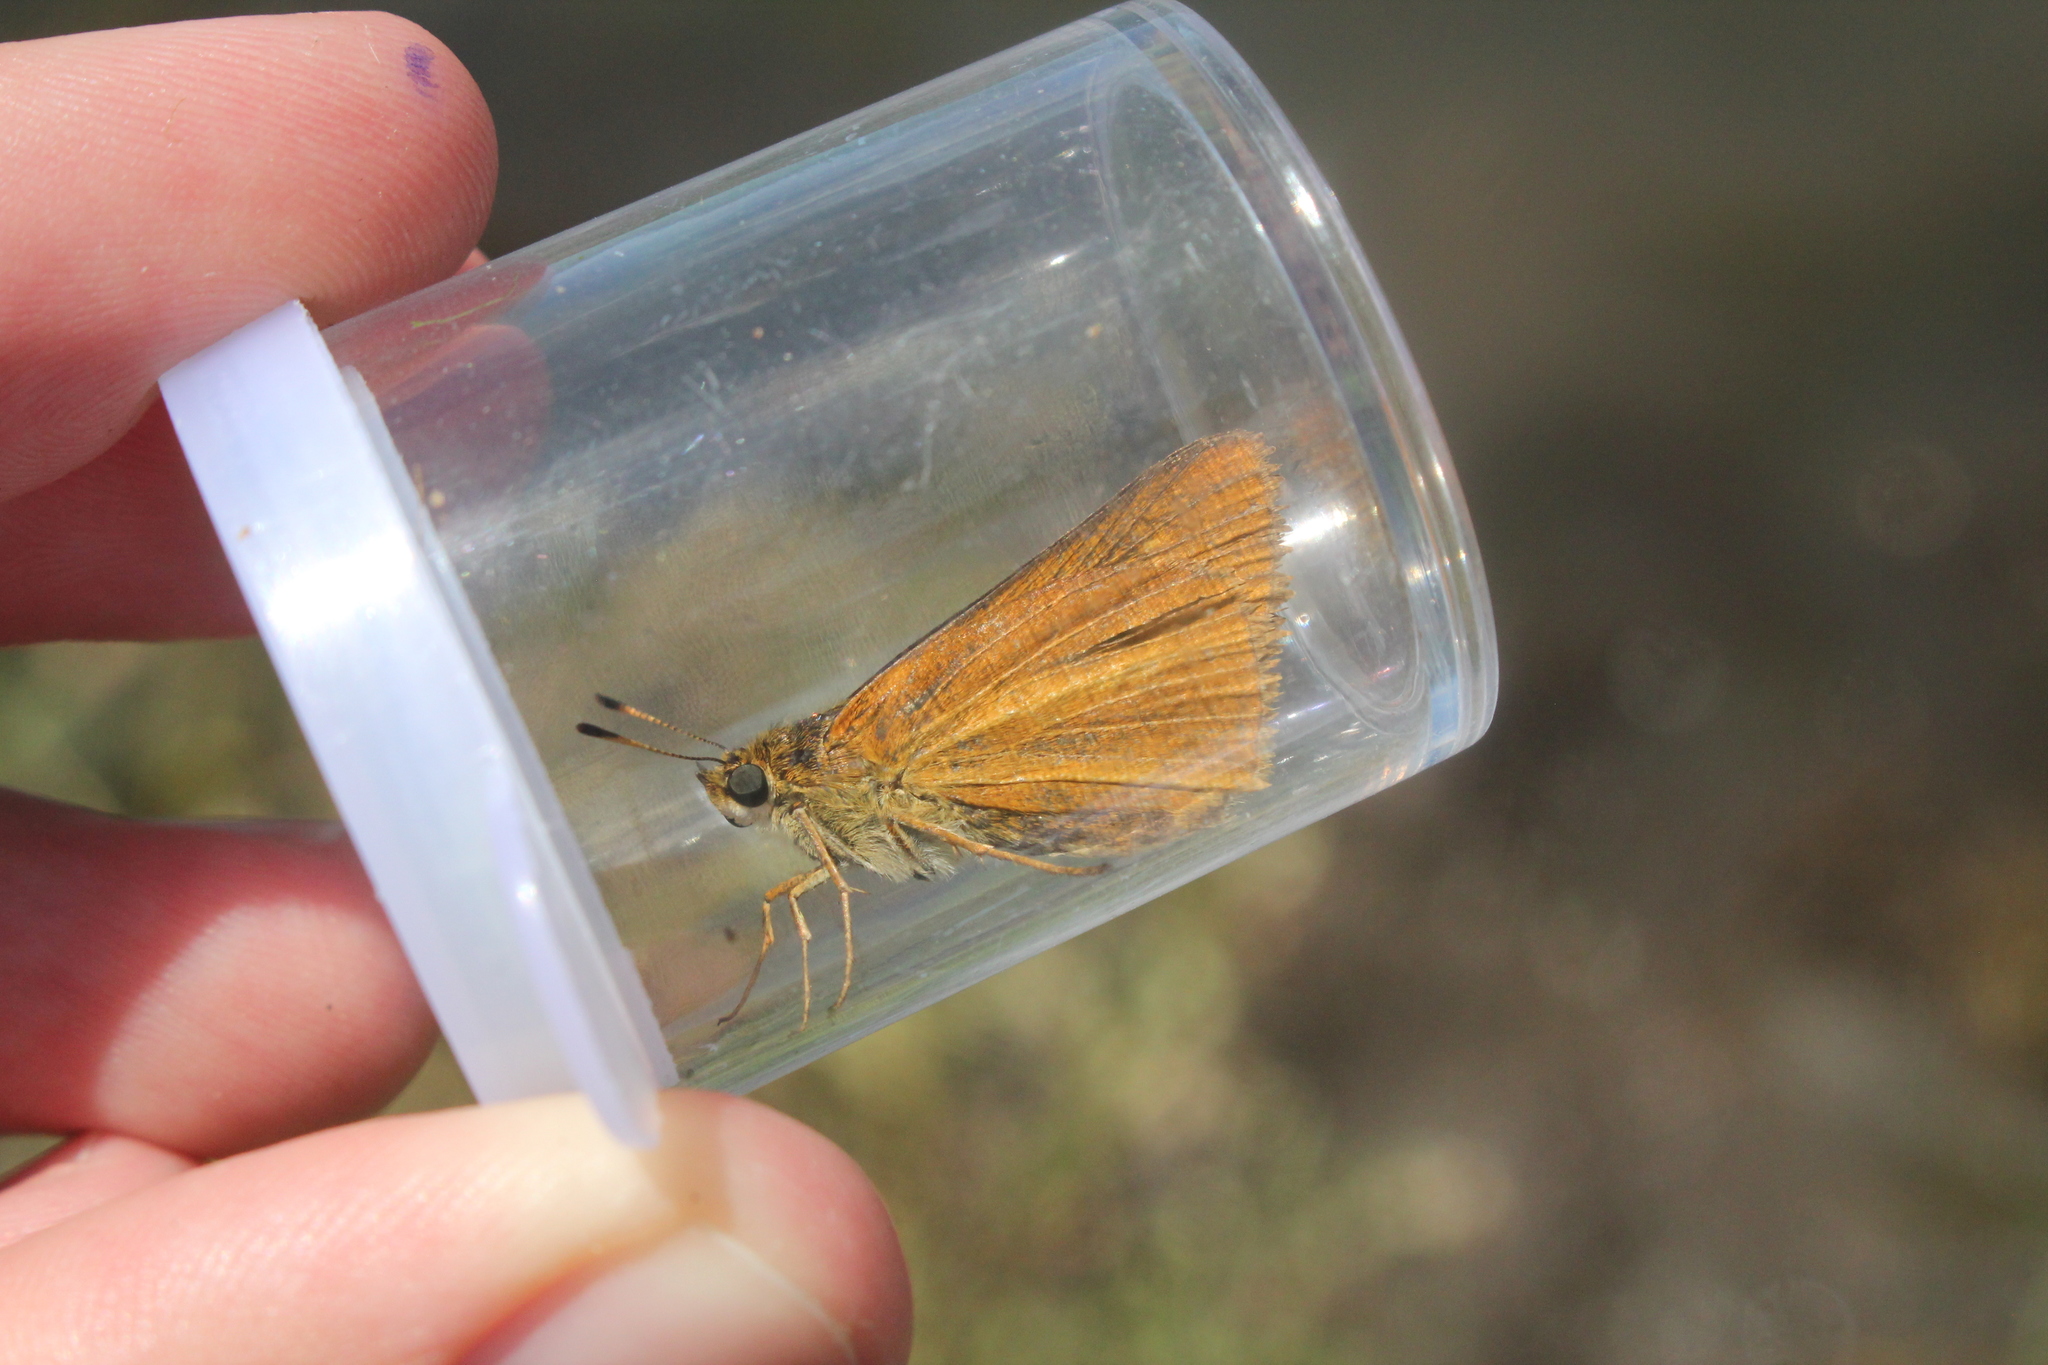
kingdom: Animalia
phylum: Arthropoda
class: Insecta
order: Lepidoptera
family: Hesperiidae
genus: Euphyes
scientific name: Euphyes dion
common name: Dion skipper
